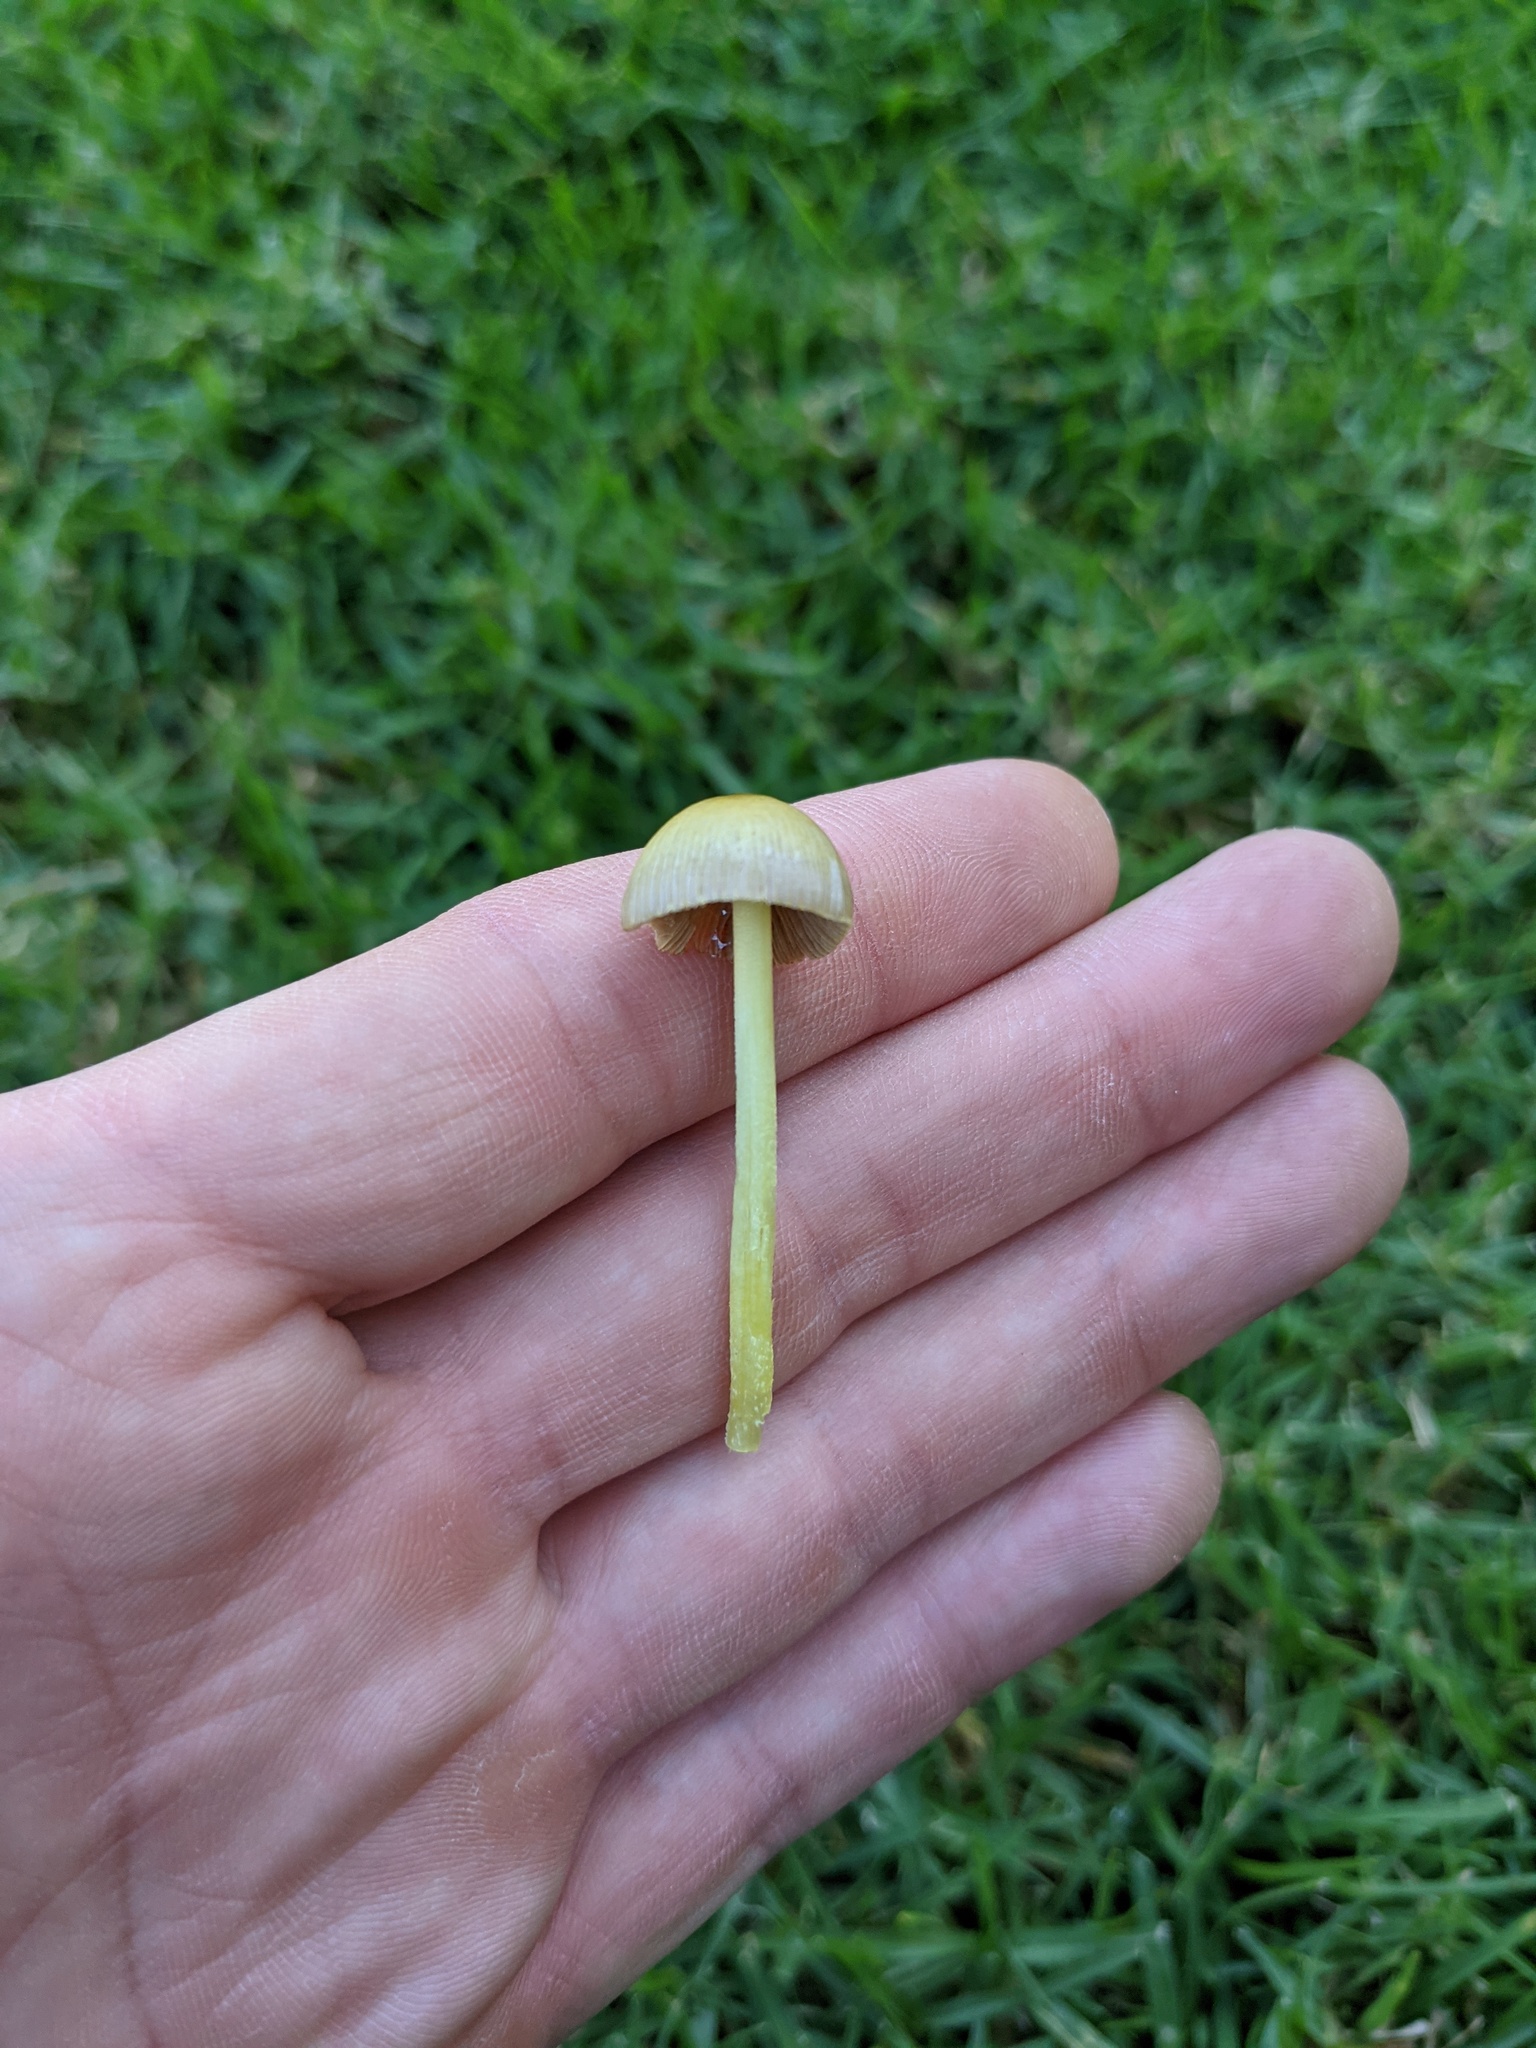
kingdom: Fungi
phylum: Basidiomycota
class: Agaricomycetes
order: Agaricales
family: Bolbitiaceae
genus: Bolbitius
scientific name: Bolbitius titubans
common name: Yellow fieldcap
